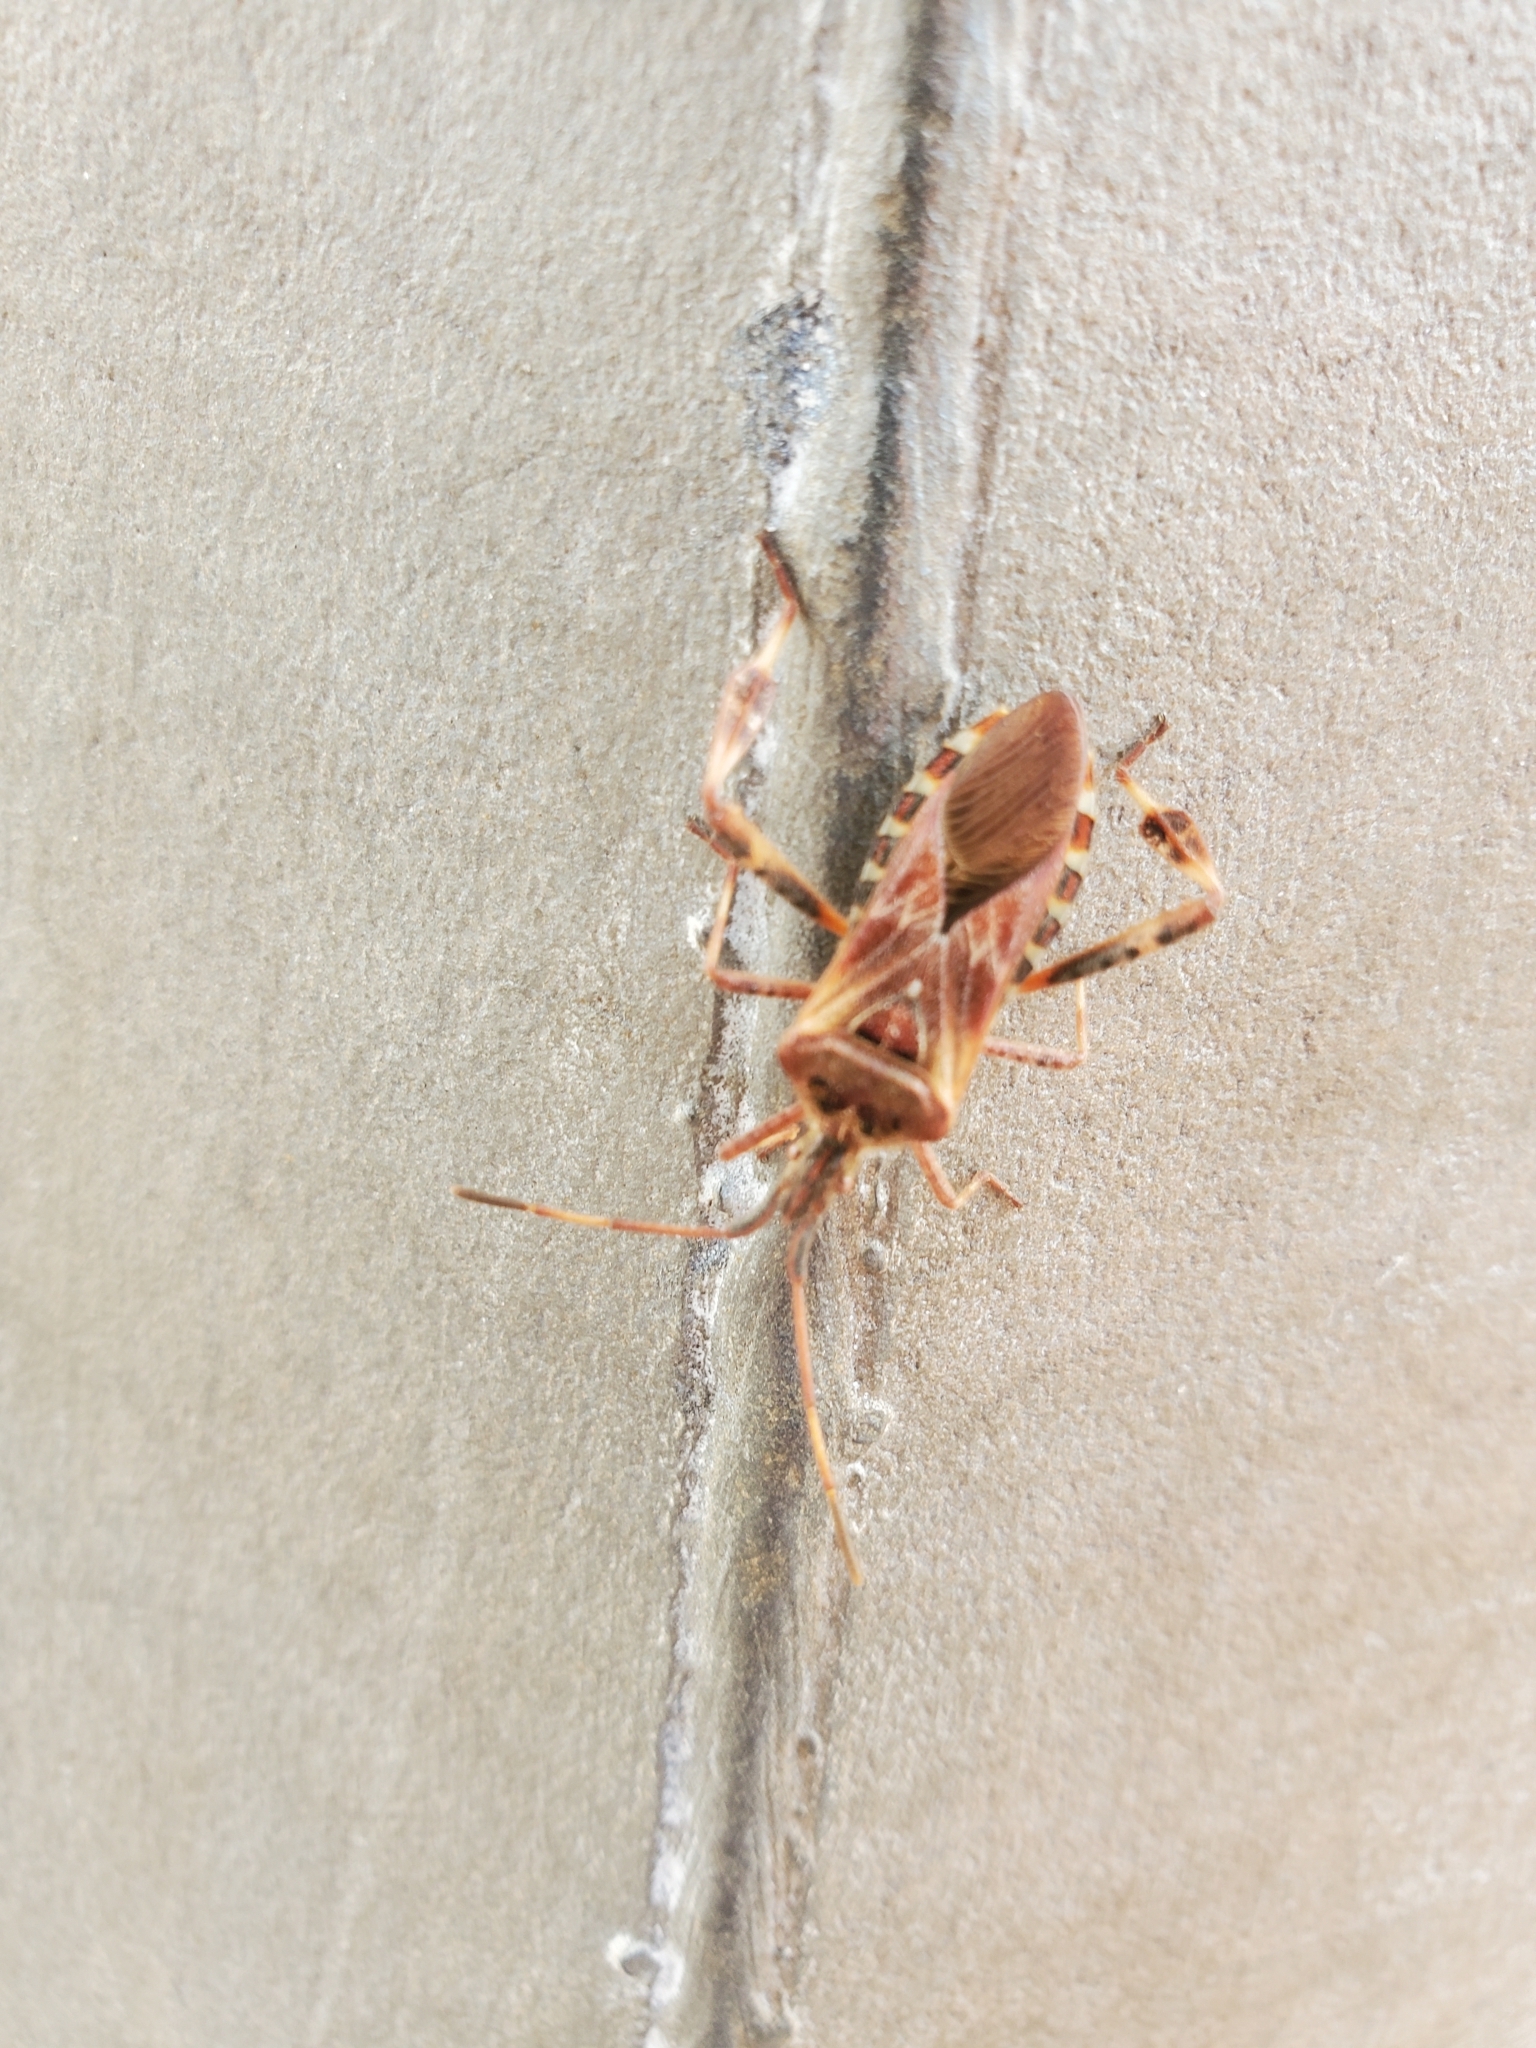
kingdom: Animalia
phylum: Arthropoda
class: Insecta
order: Hemiptera
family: Coreidae
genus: Leptoglossus
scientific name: Leptoglossus occidentalis
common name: Western conifer-seed bug
